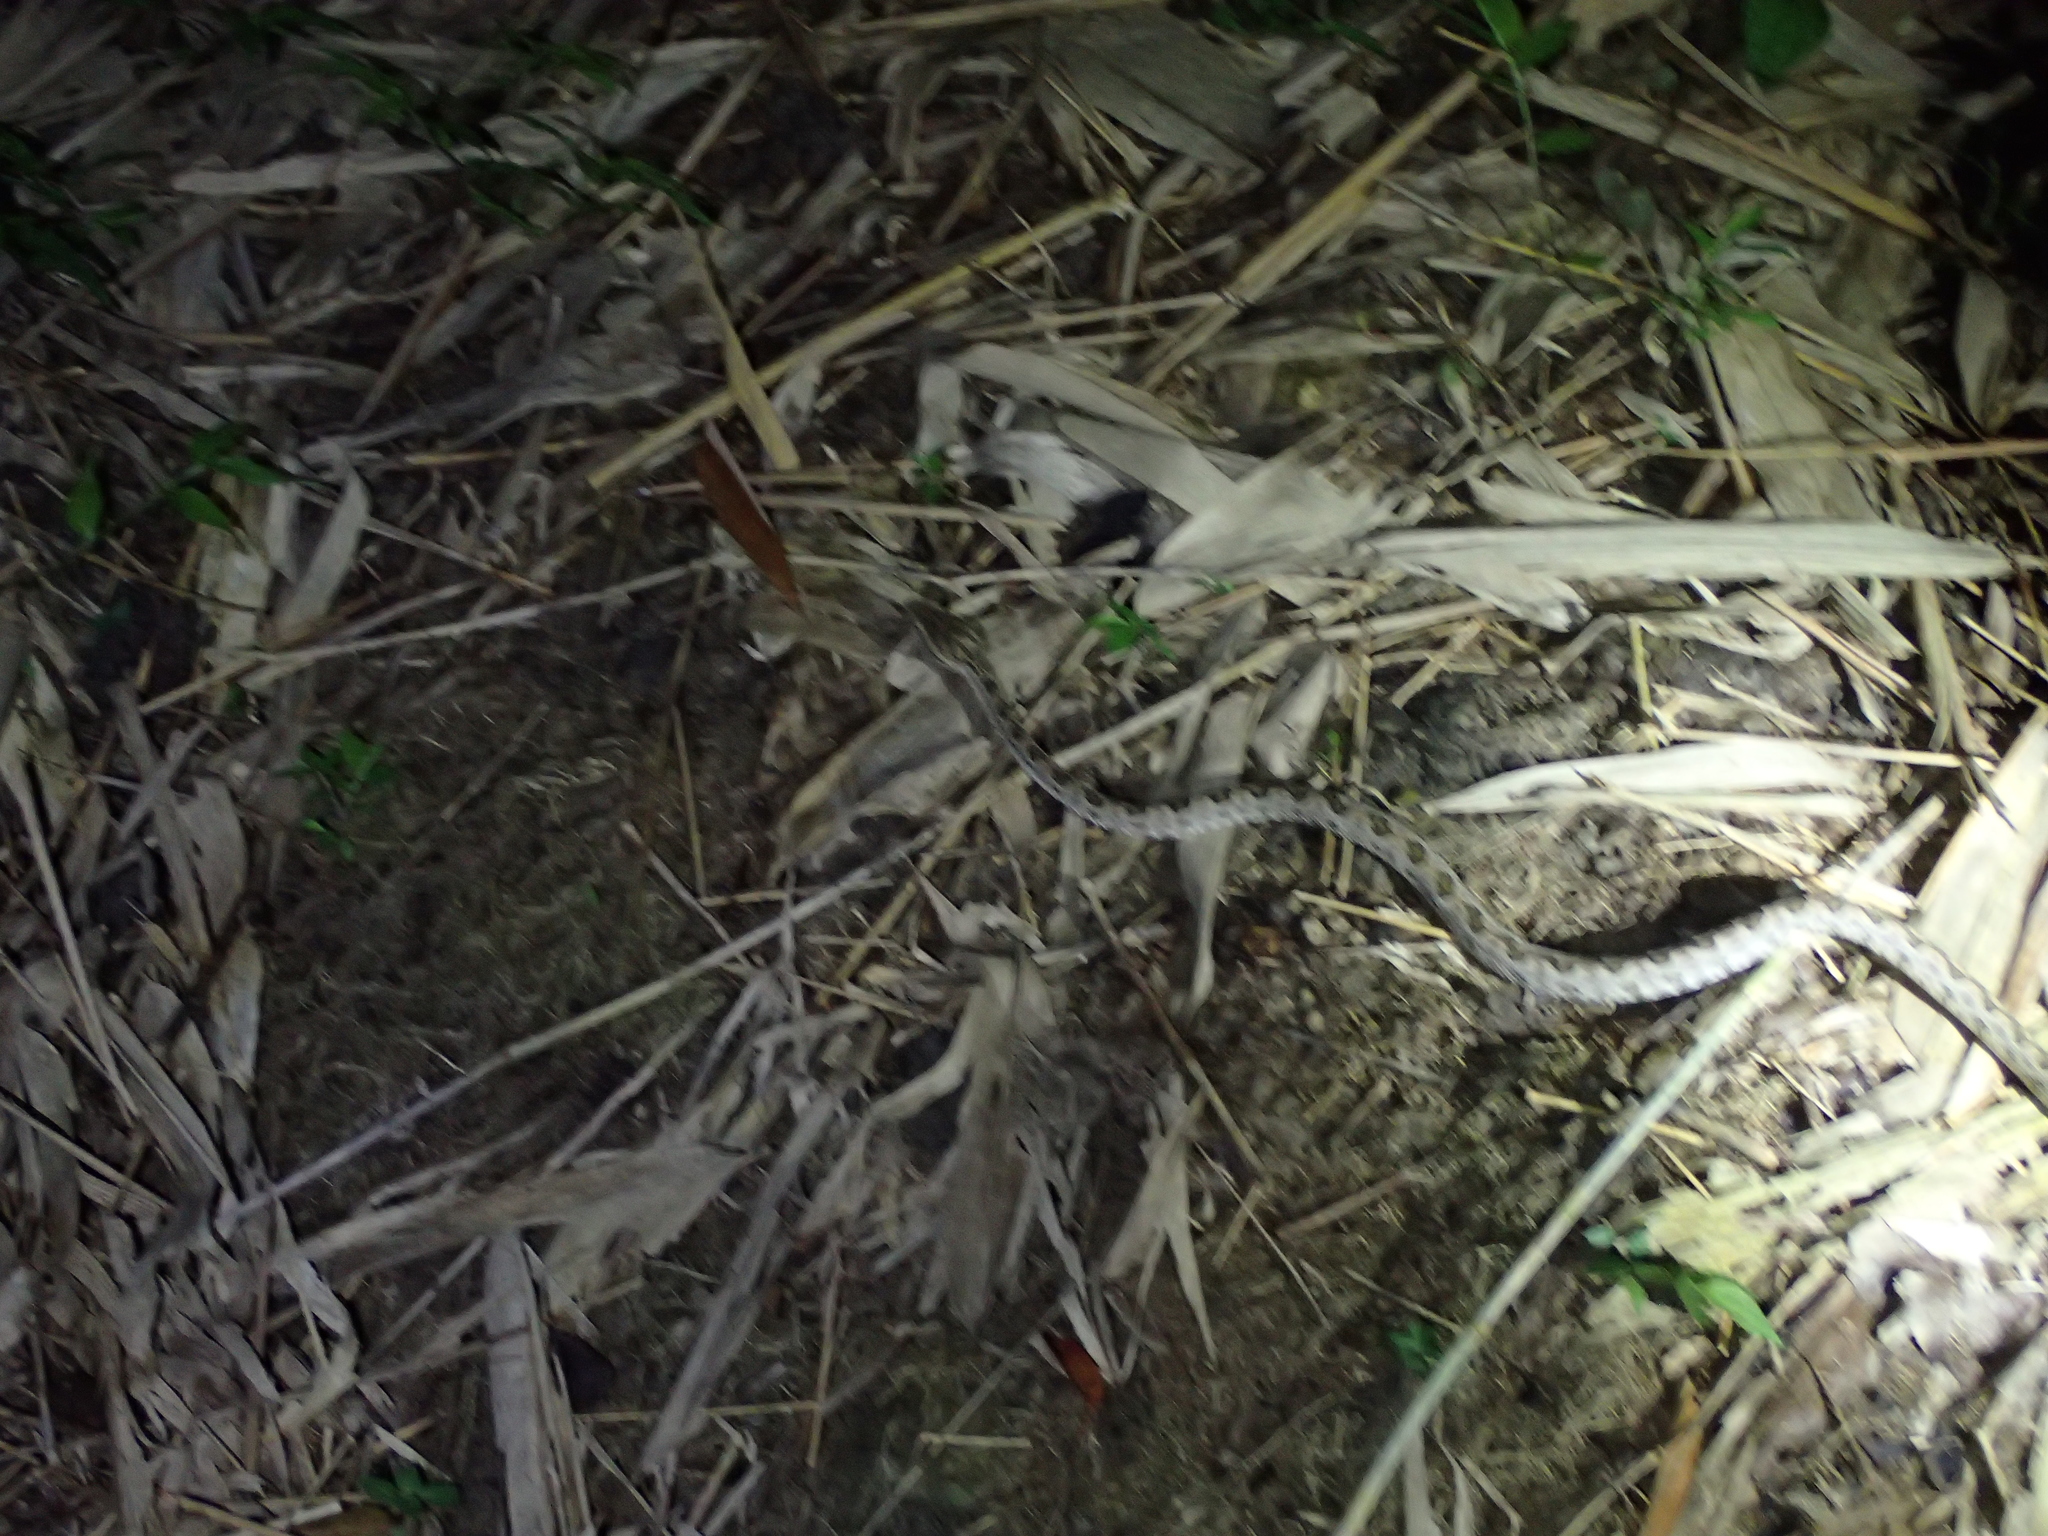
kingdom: Animalia
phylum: Chordata
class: Squamata
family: Viperidae
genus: Protobothrops
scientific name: Protobothrops mucrosquamatus
